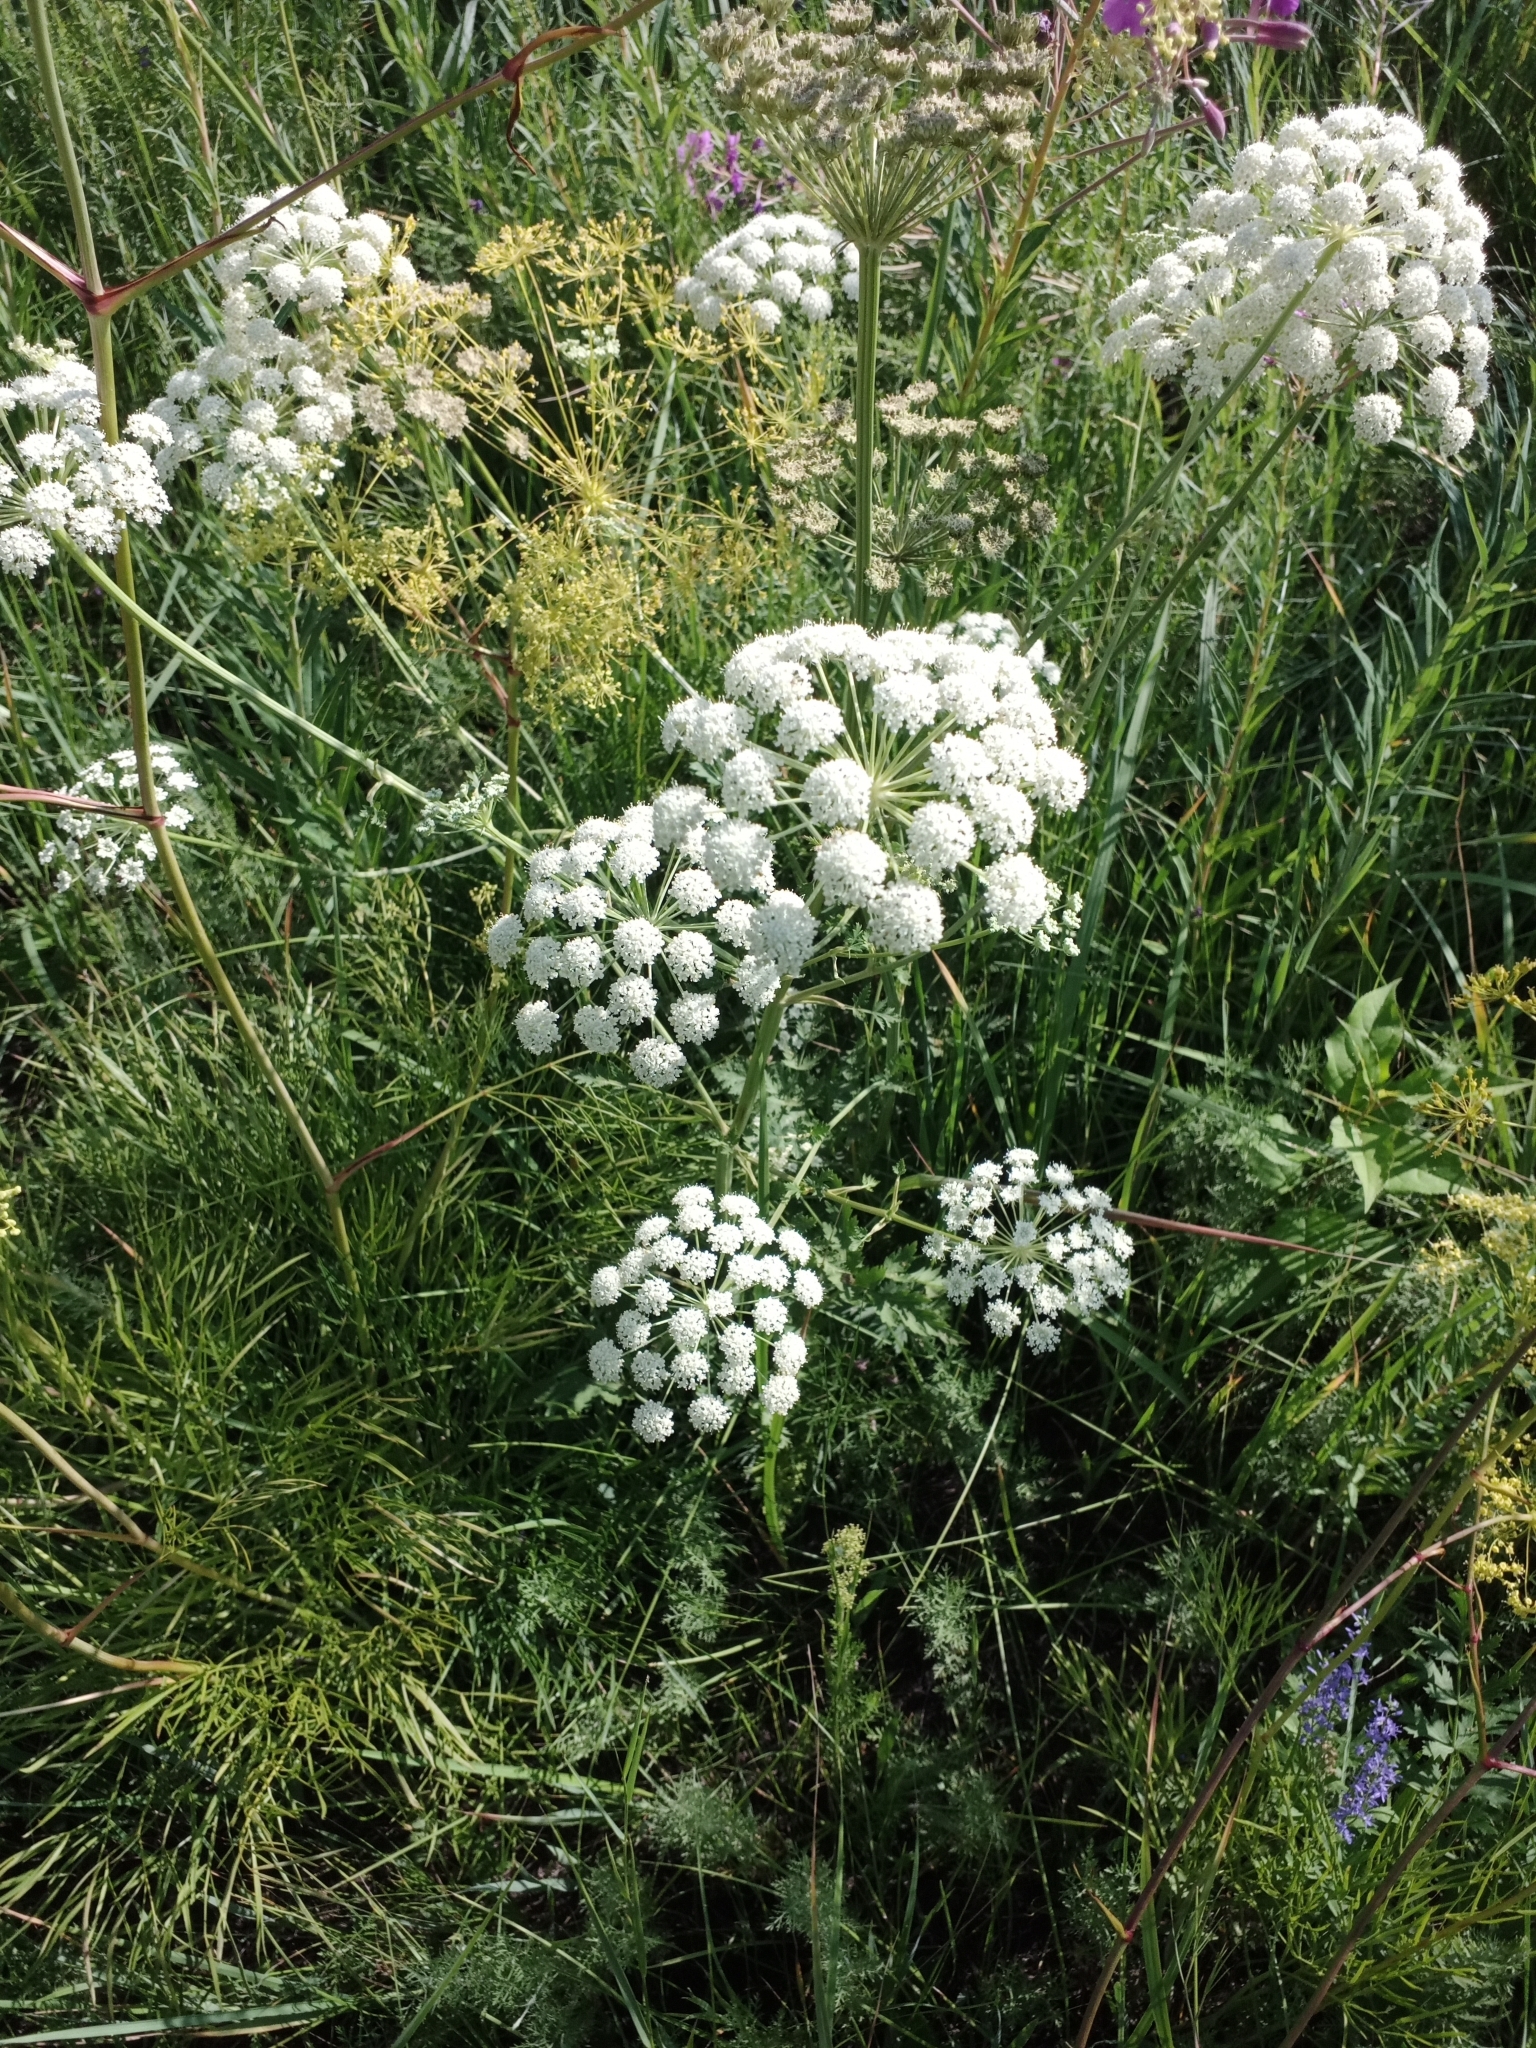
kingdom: Plantae
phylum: Tracheophyta
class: Magnoliopsida
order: Apiales
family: Apiaceae
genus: Seseli
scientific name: Seseli libanotis
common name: Mooncarrot
